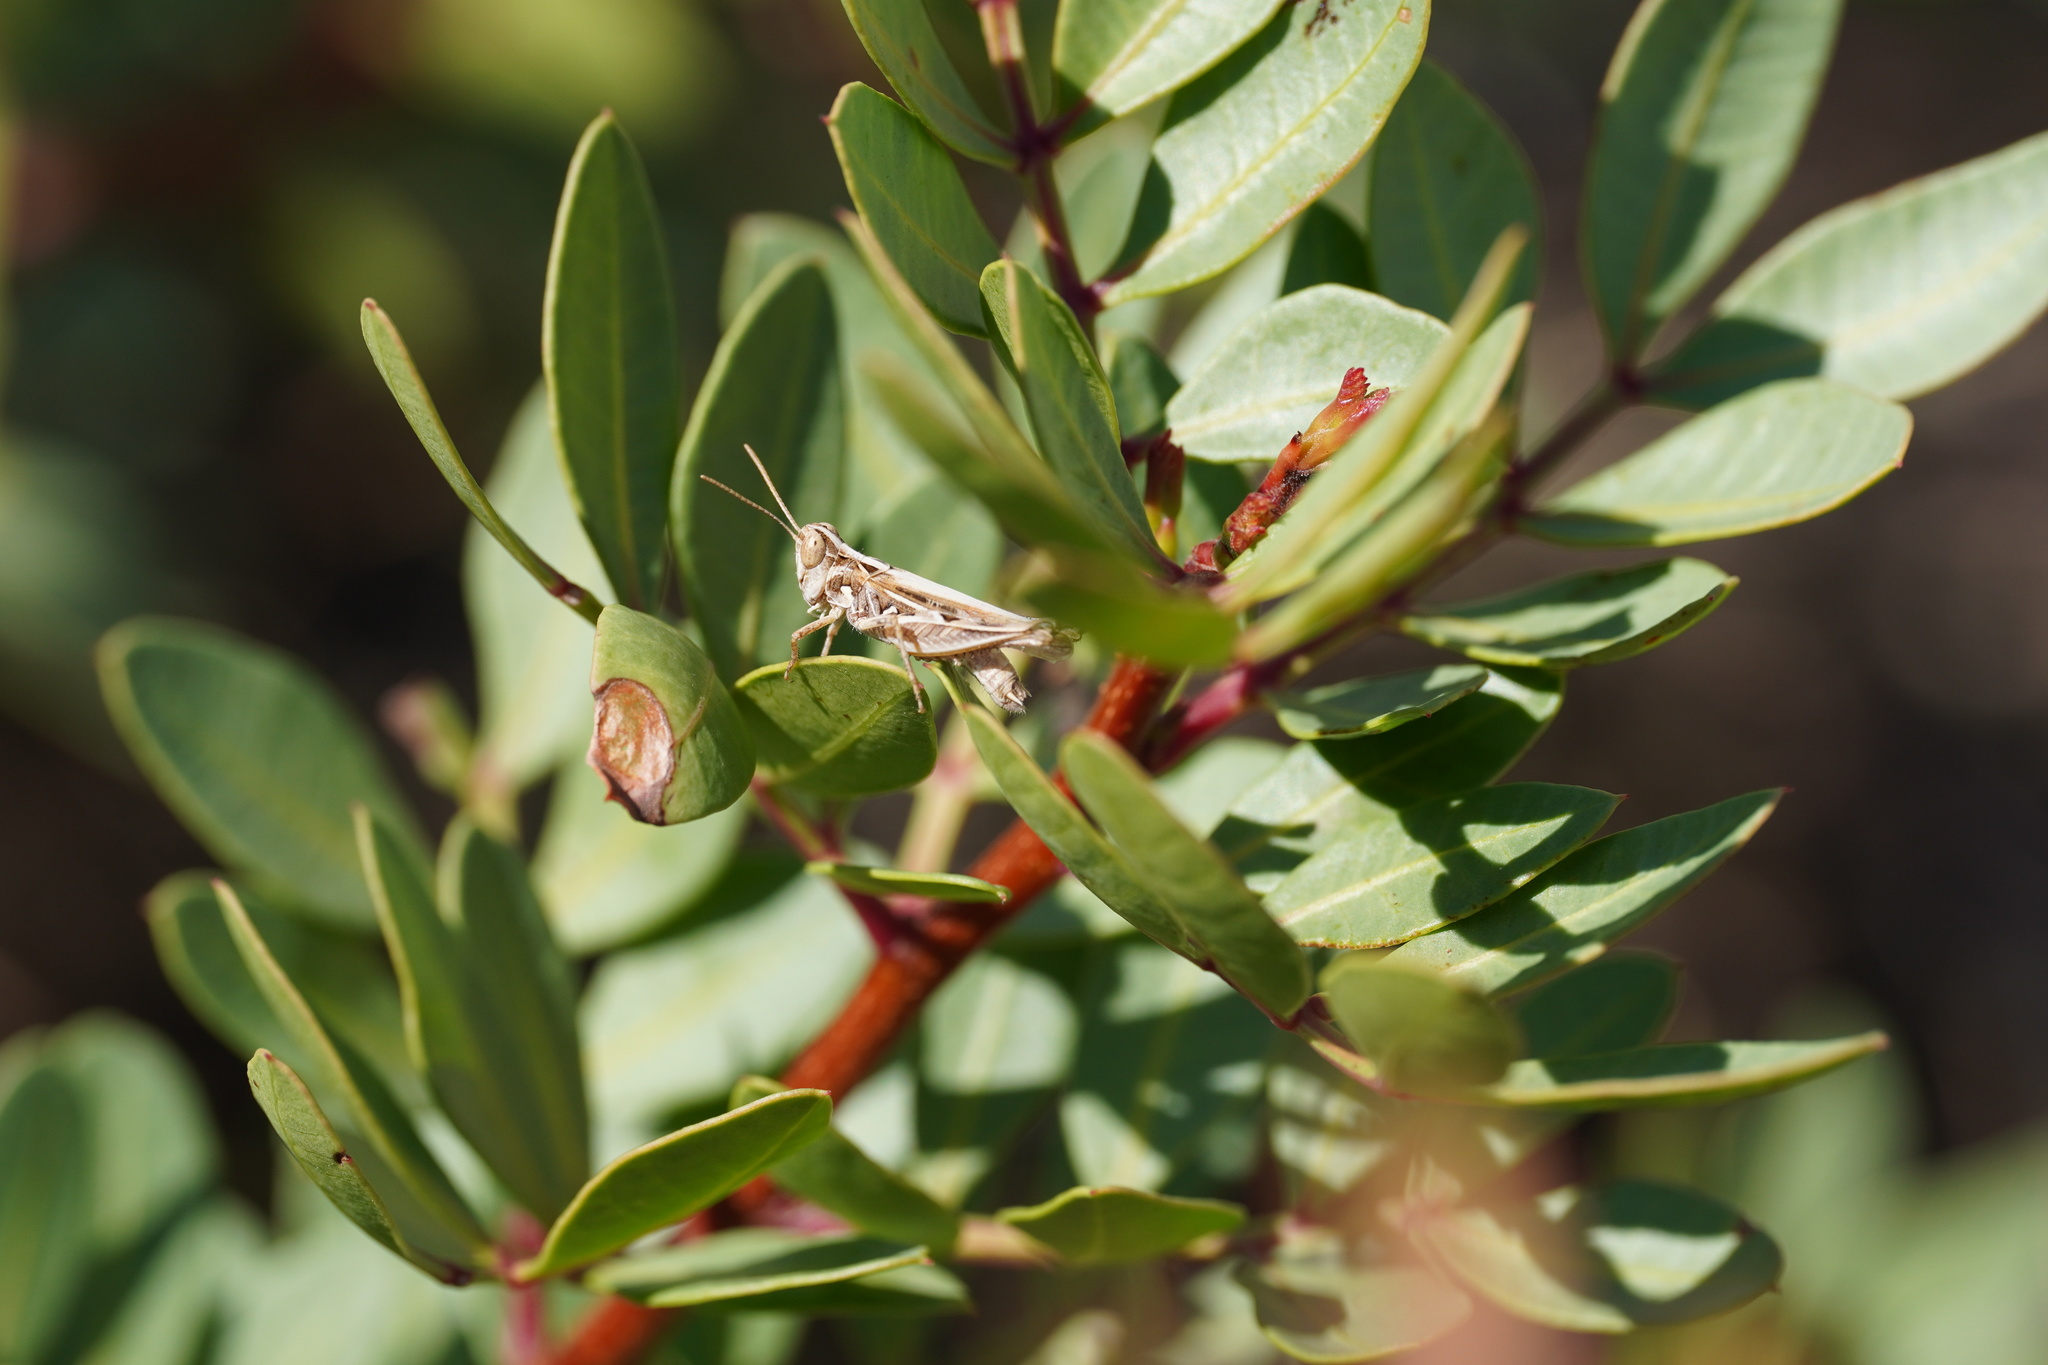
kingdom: Animalia
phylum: Arthropoda
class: Insecta
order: Orthoptera
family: Acrididae
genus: Dociostaurus
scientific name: Dociostaurus jagoi
